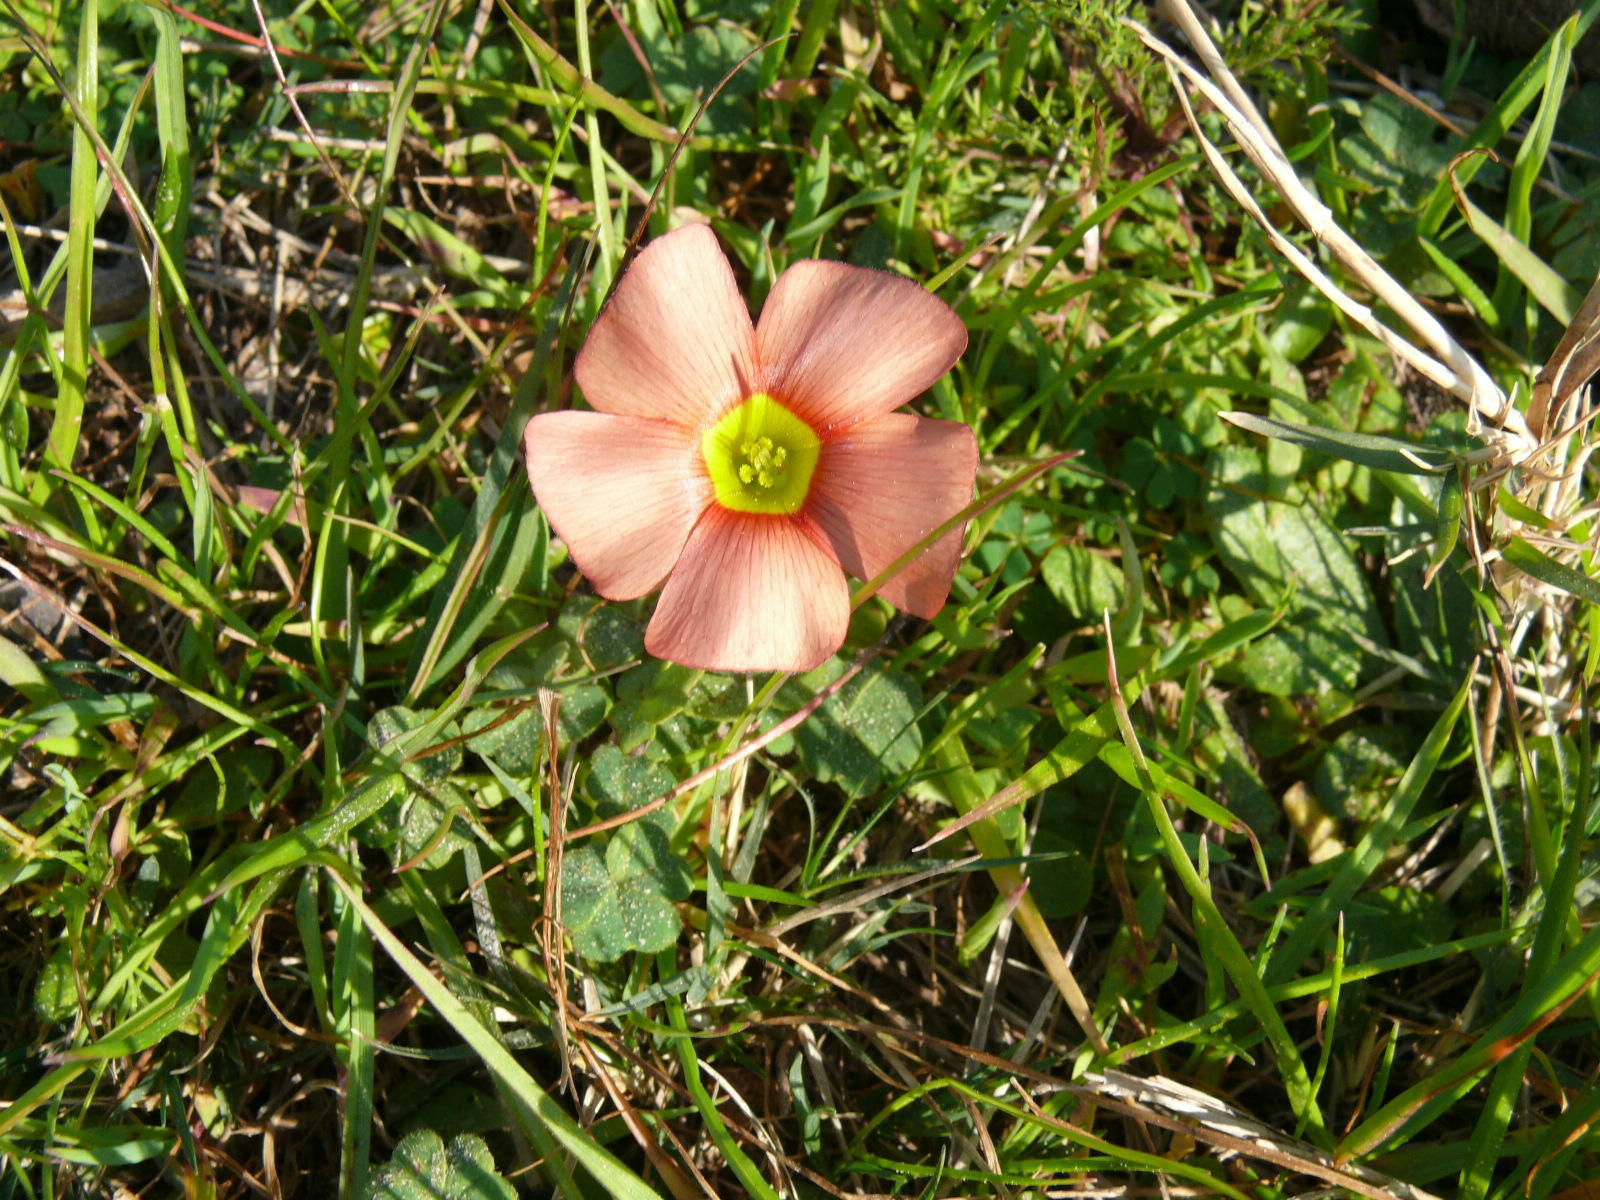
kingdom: Plantae
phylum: Tracheophyta
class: Magnoliopsida
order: Oxalidales
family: Oxalidaceae
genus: Oxalis
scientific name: Oxalis obtusa
